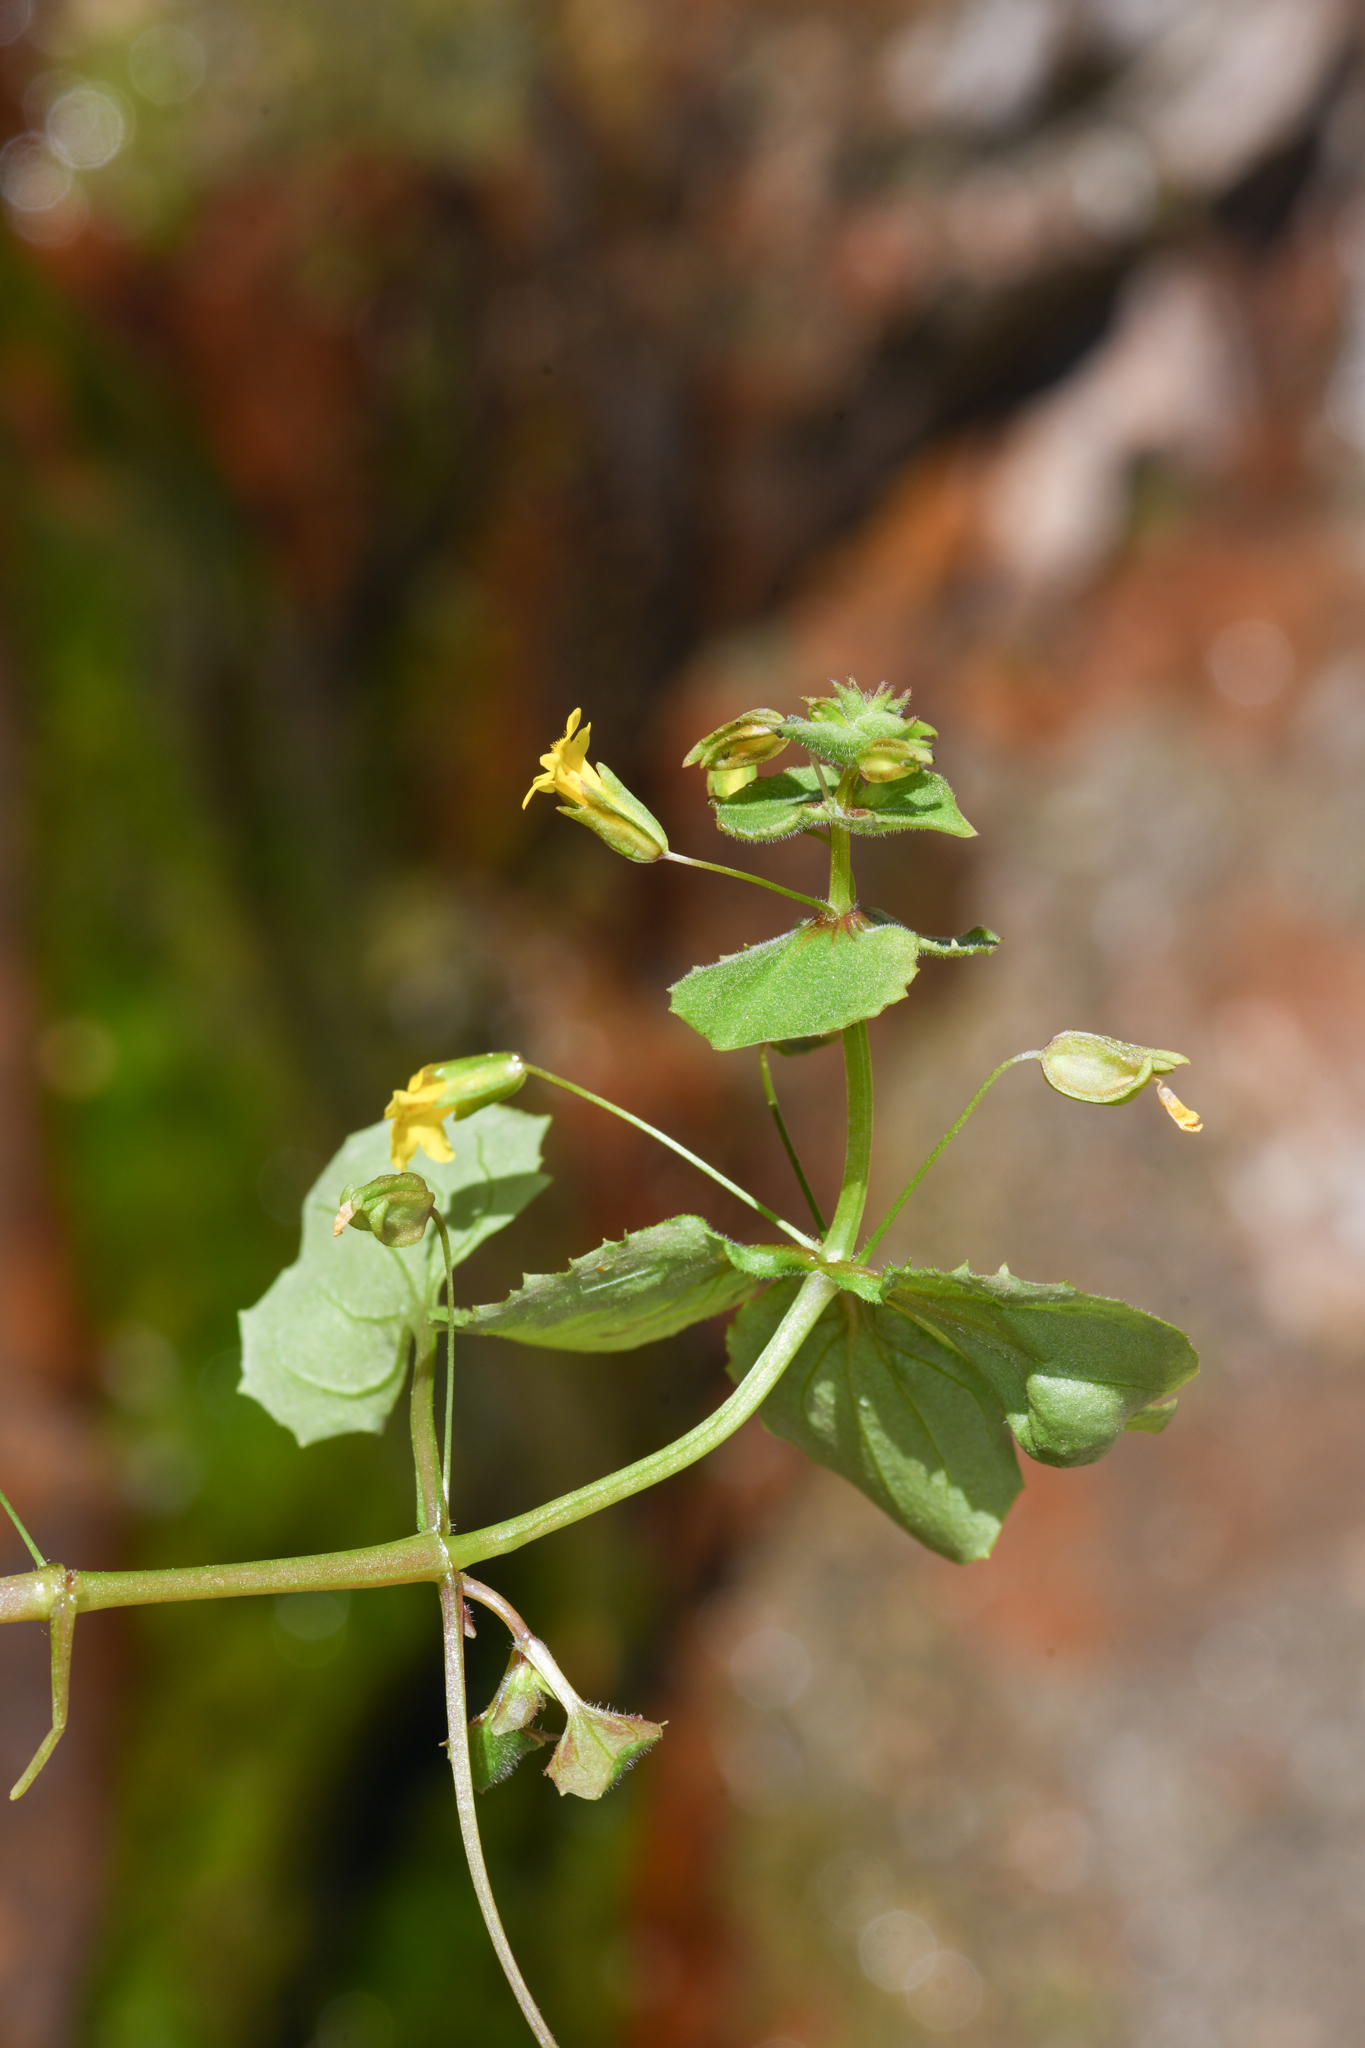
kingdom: Plantae
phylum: Tracheophyta
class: Magnoliopsida
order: Lamiales
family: Phrymaceae
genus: Erythranthe
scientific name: Erythranthe nasuta
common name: Sooke monkeyflower
